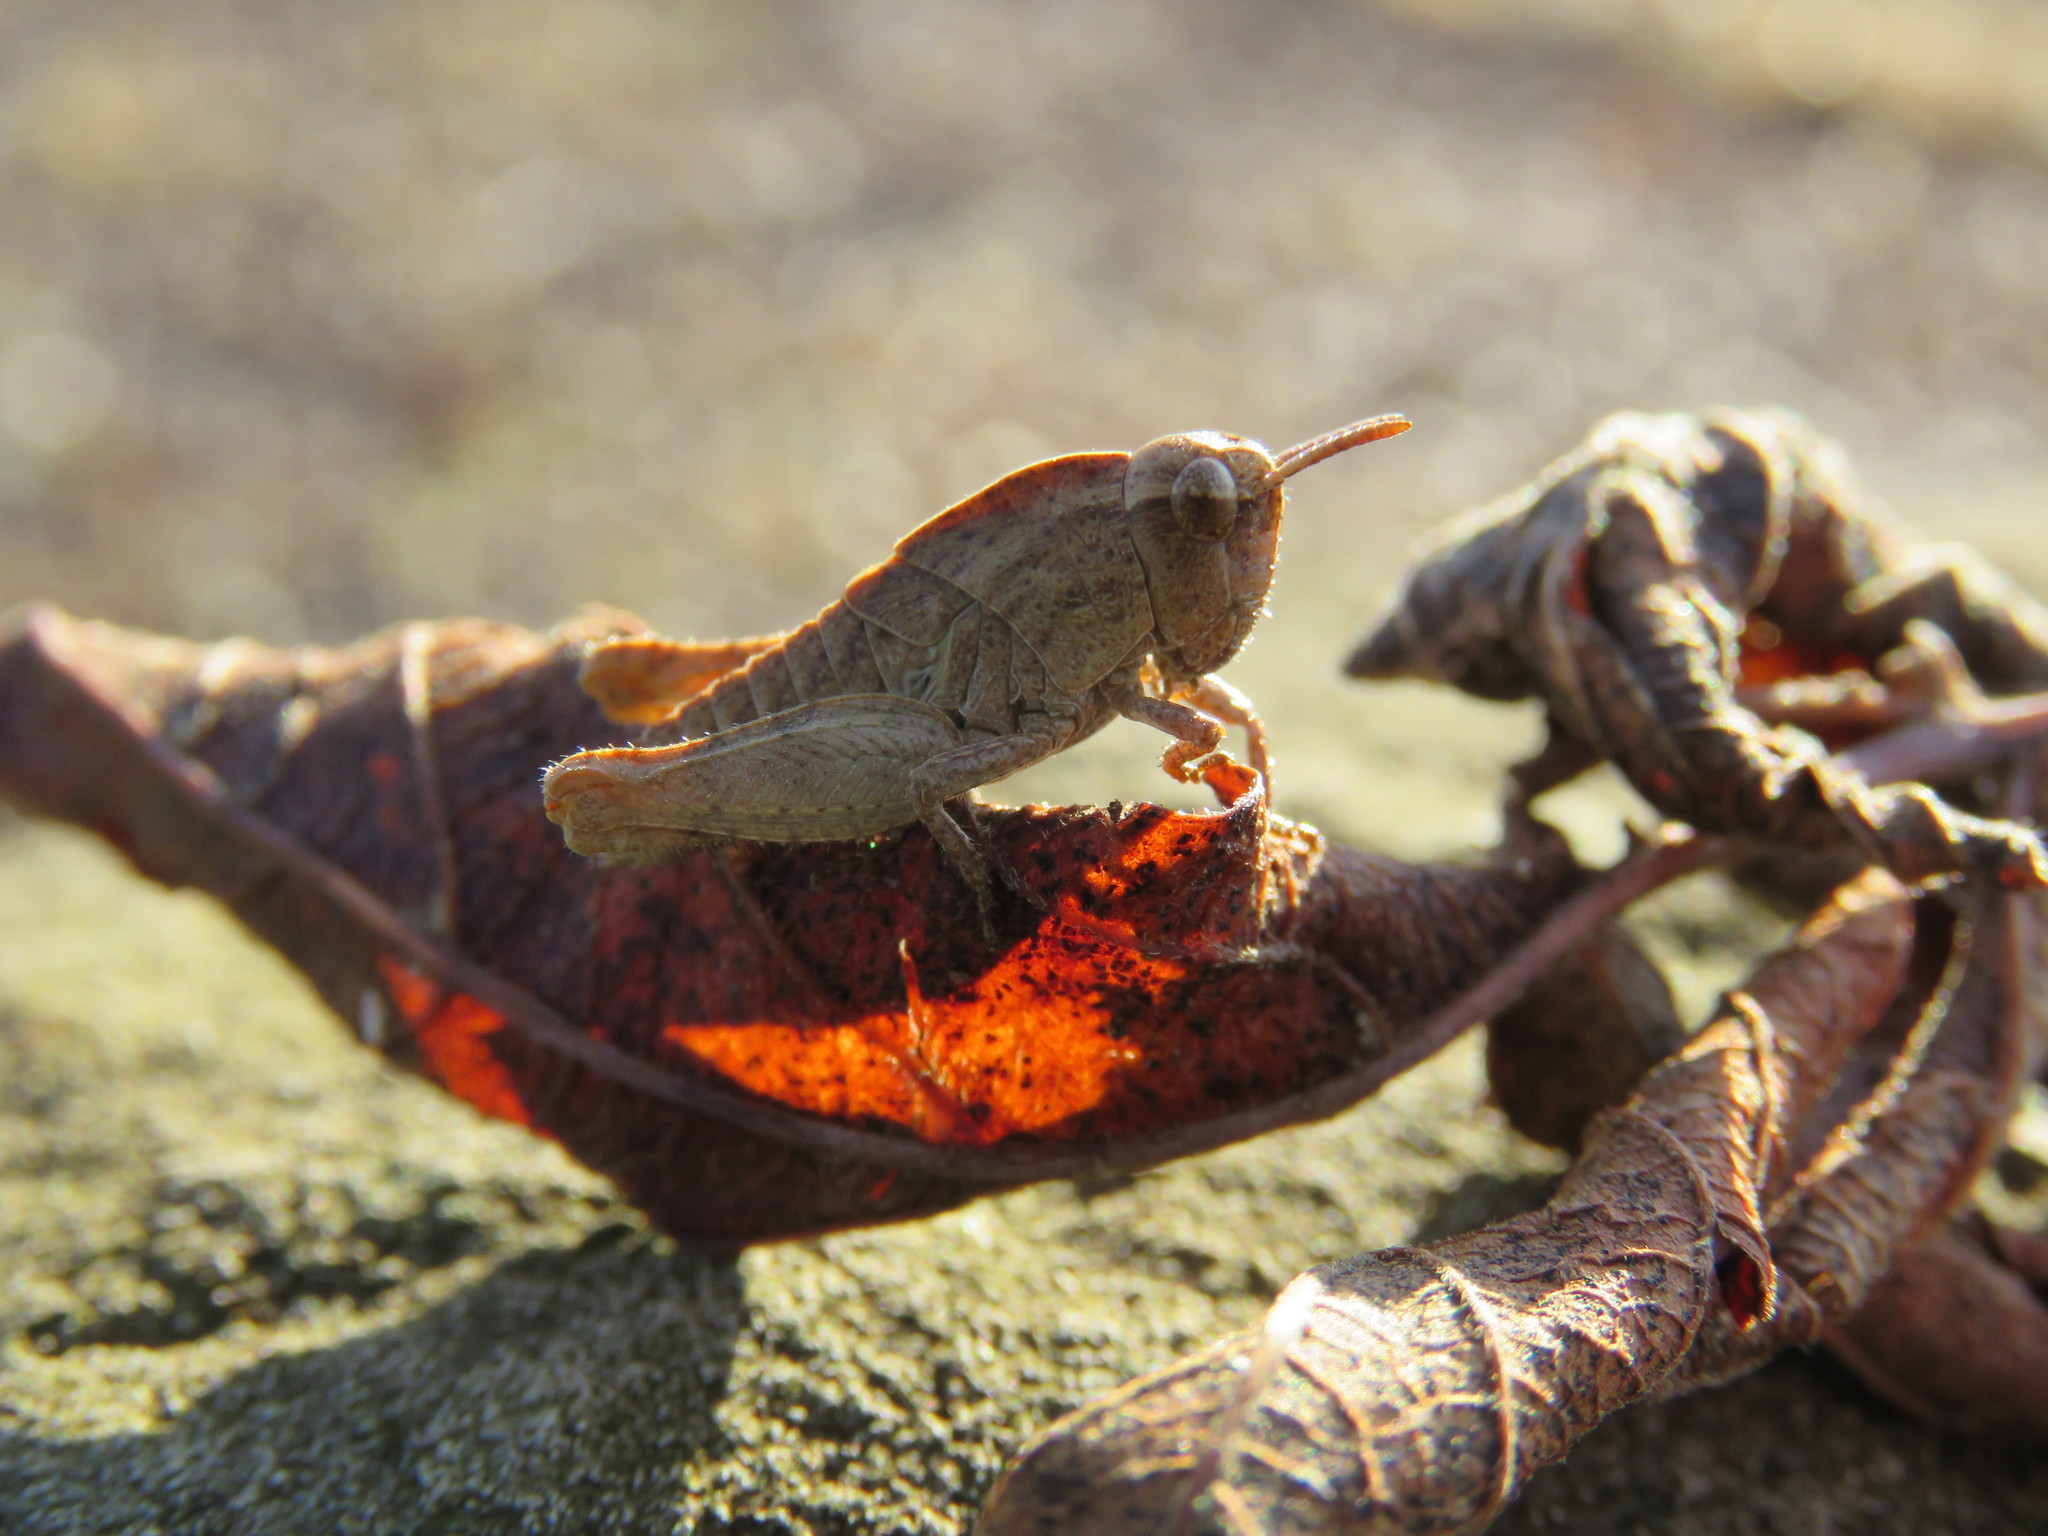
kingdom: Animalia
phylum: Arthropoda
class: Insecta
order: Orthoptera
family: Acrididae
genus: Chortophaga
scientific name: Chortophaga viridifasciata
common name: Green-striped grasshopper
